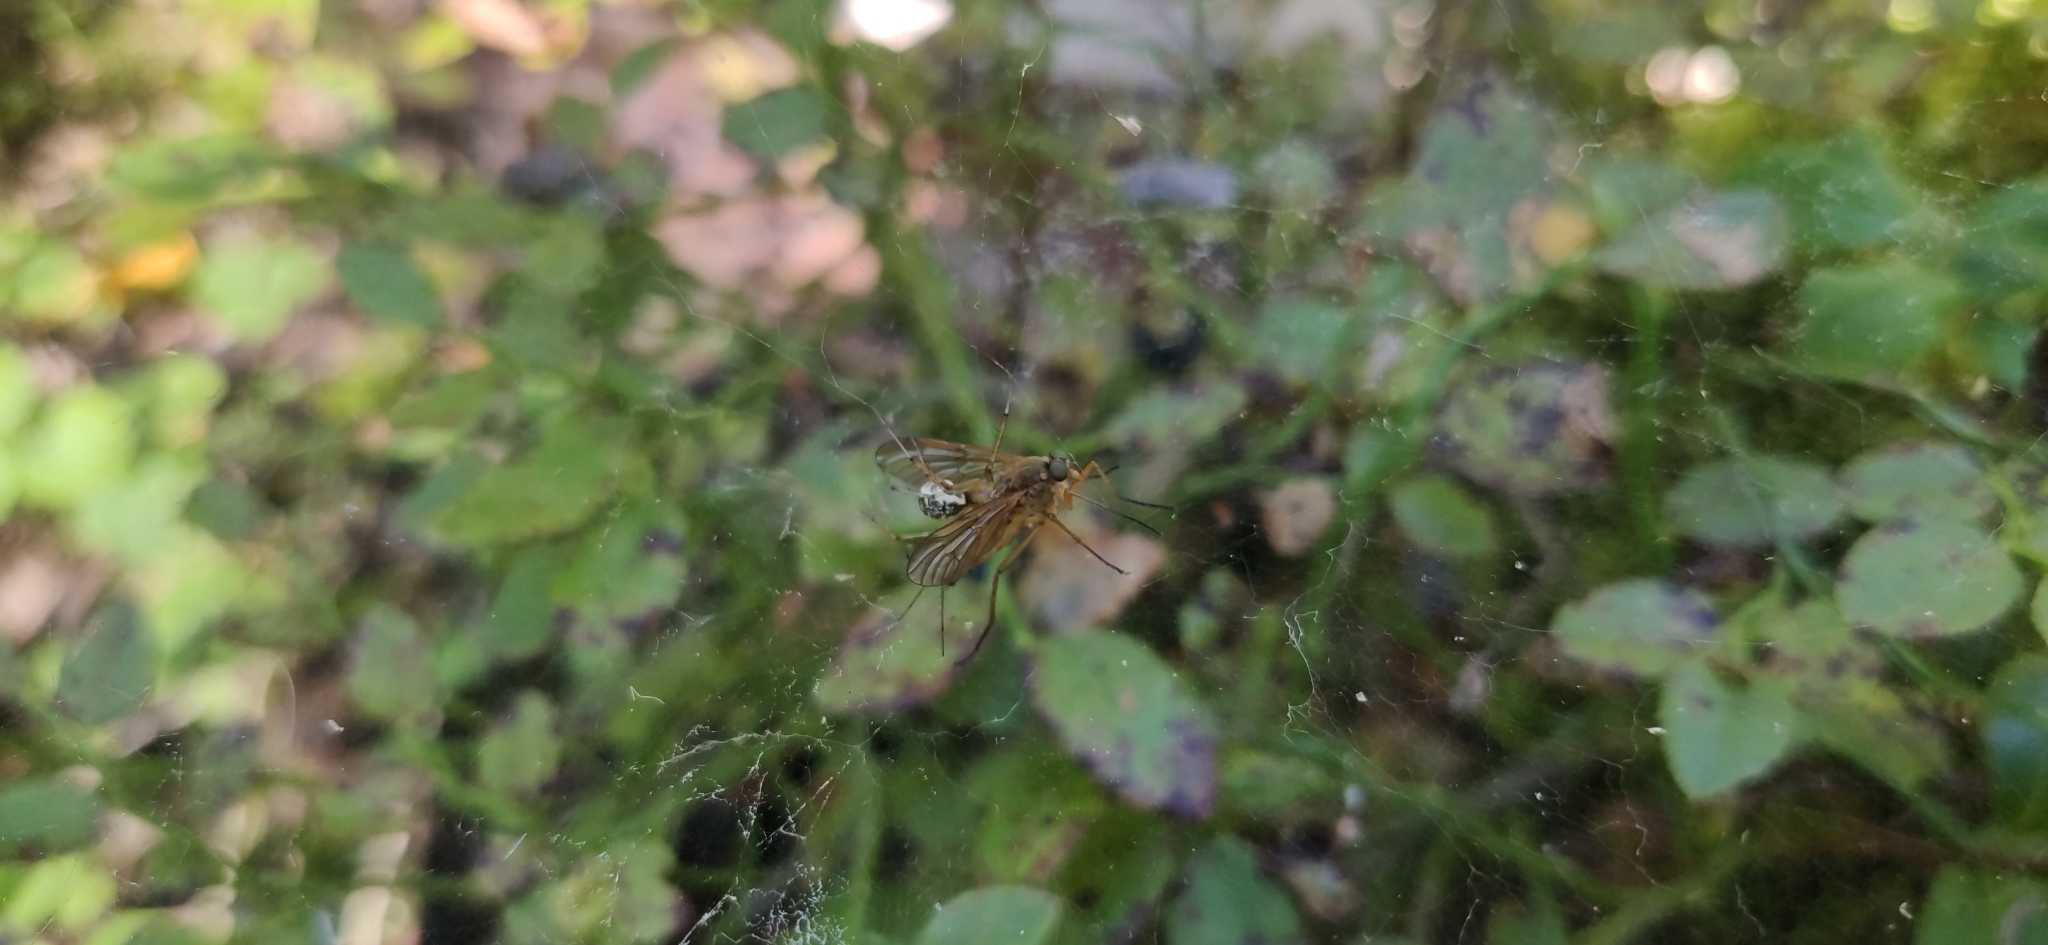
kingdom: Animalia
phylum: Arthropoda
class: Insecta
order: Diptera
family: Rhagionidae
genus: Rhagio
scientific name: Rhagio tringaria
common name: Marsh snipefly
